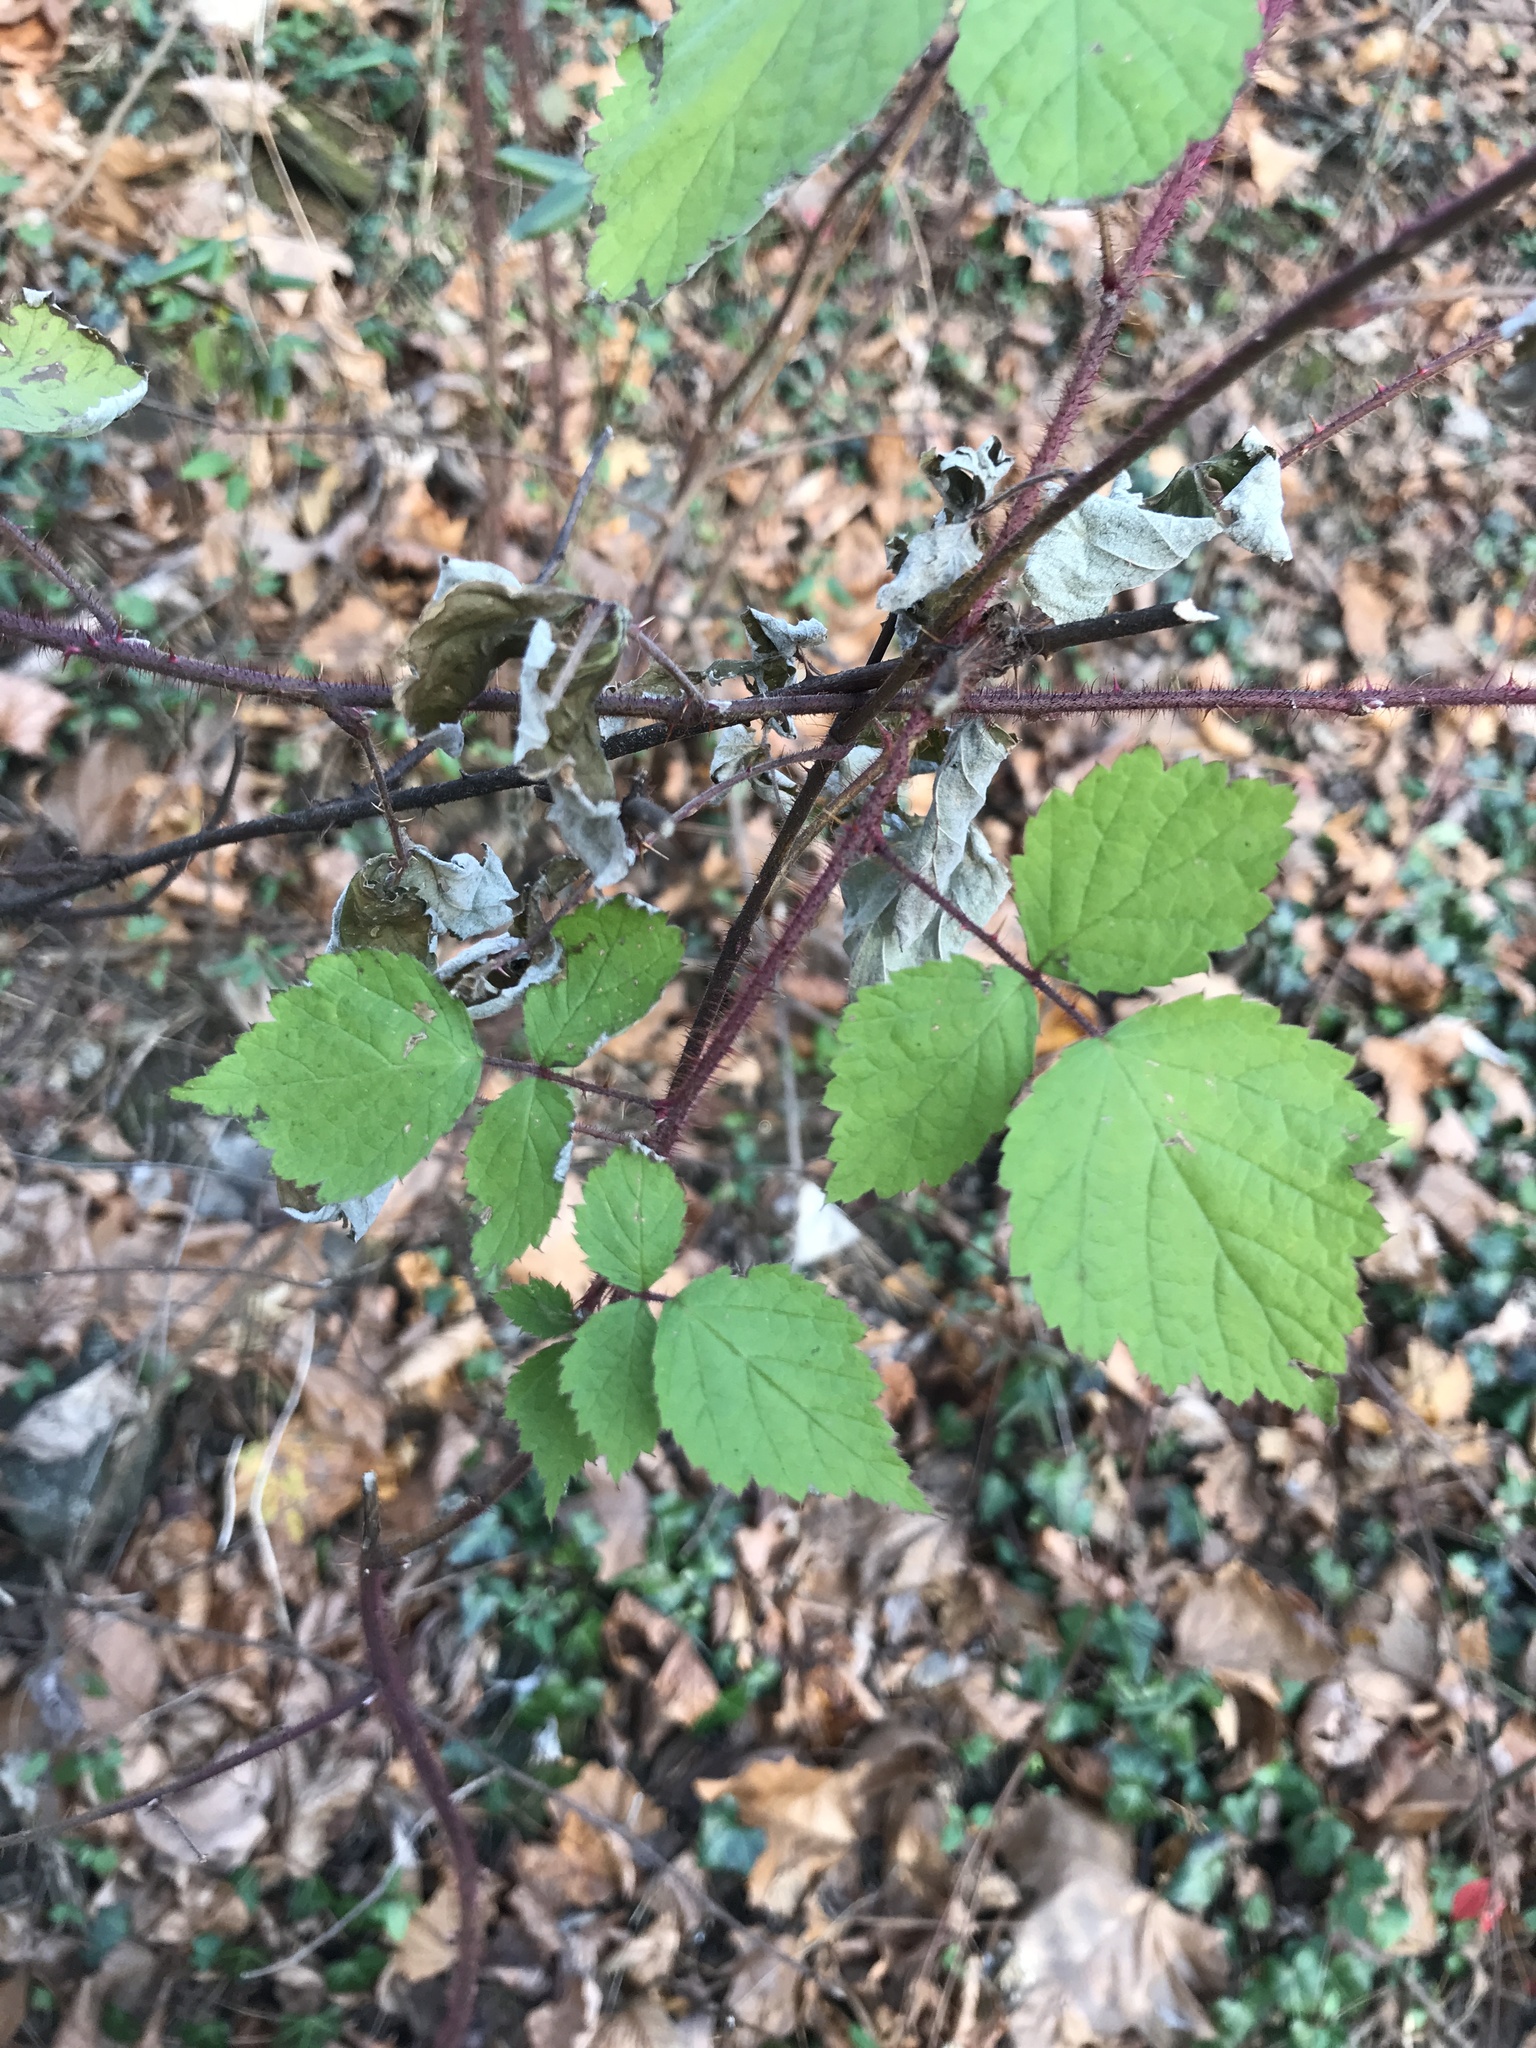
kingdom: Plantae
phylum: Tracheophyta
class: Magnoliopsida
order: Rosales
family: Rosaceae
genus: Rubus
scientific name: Rubus phoenicolasius
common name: Japanese wineberry
